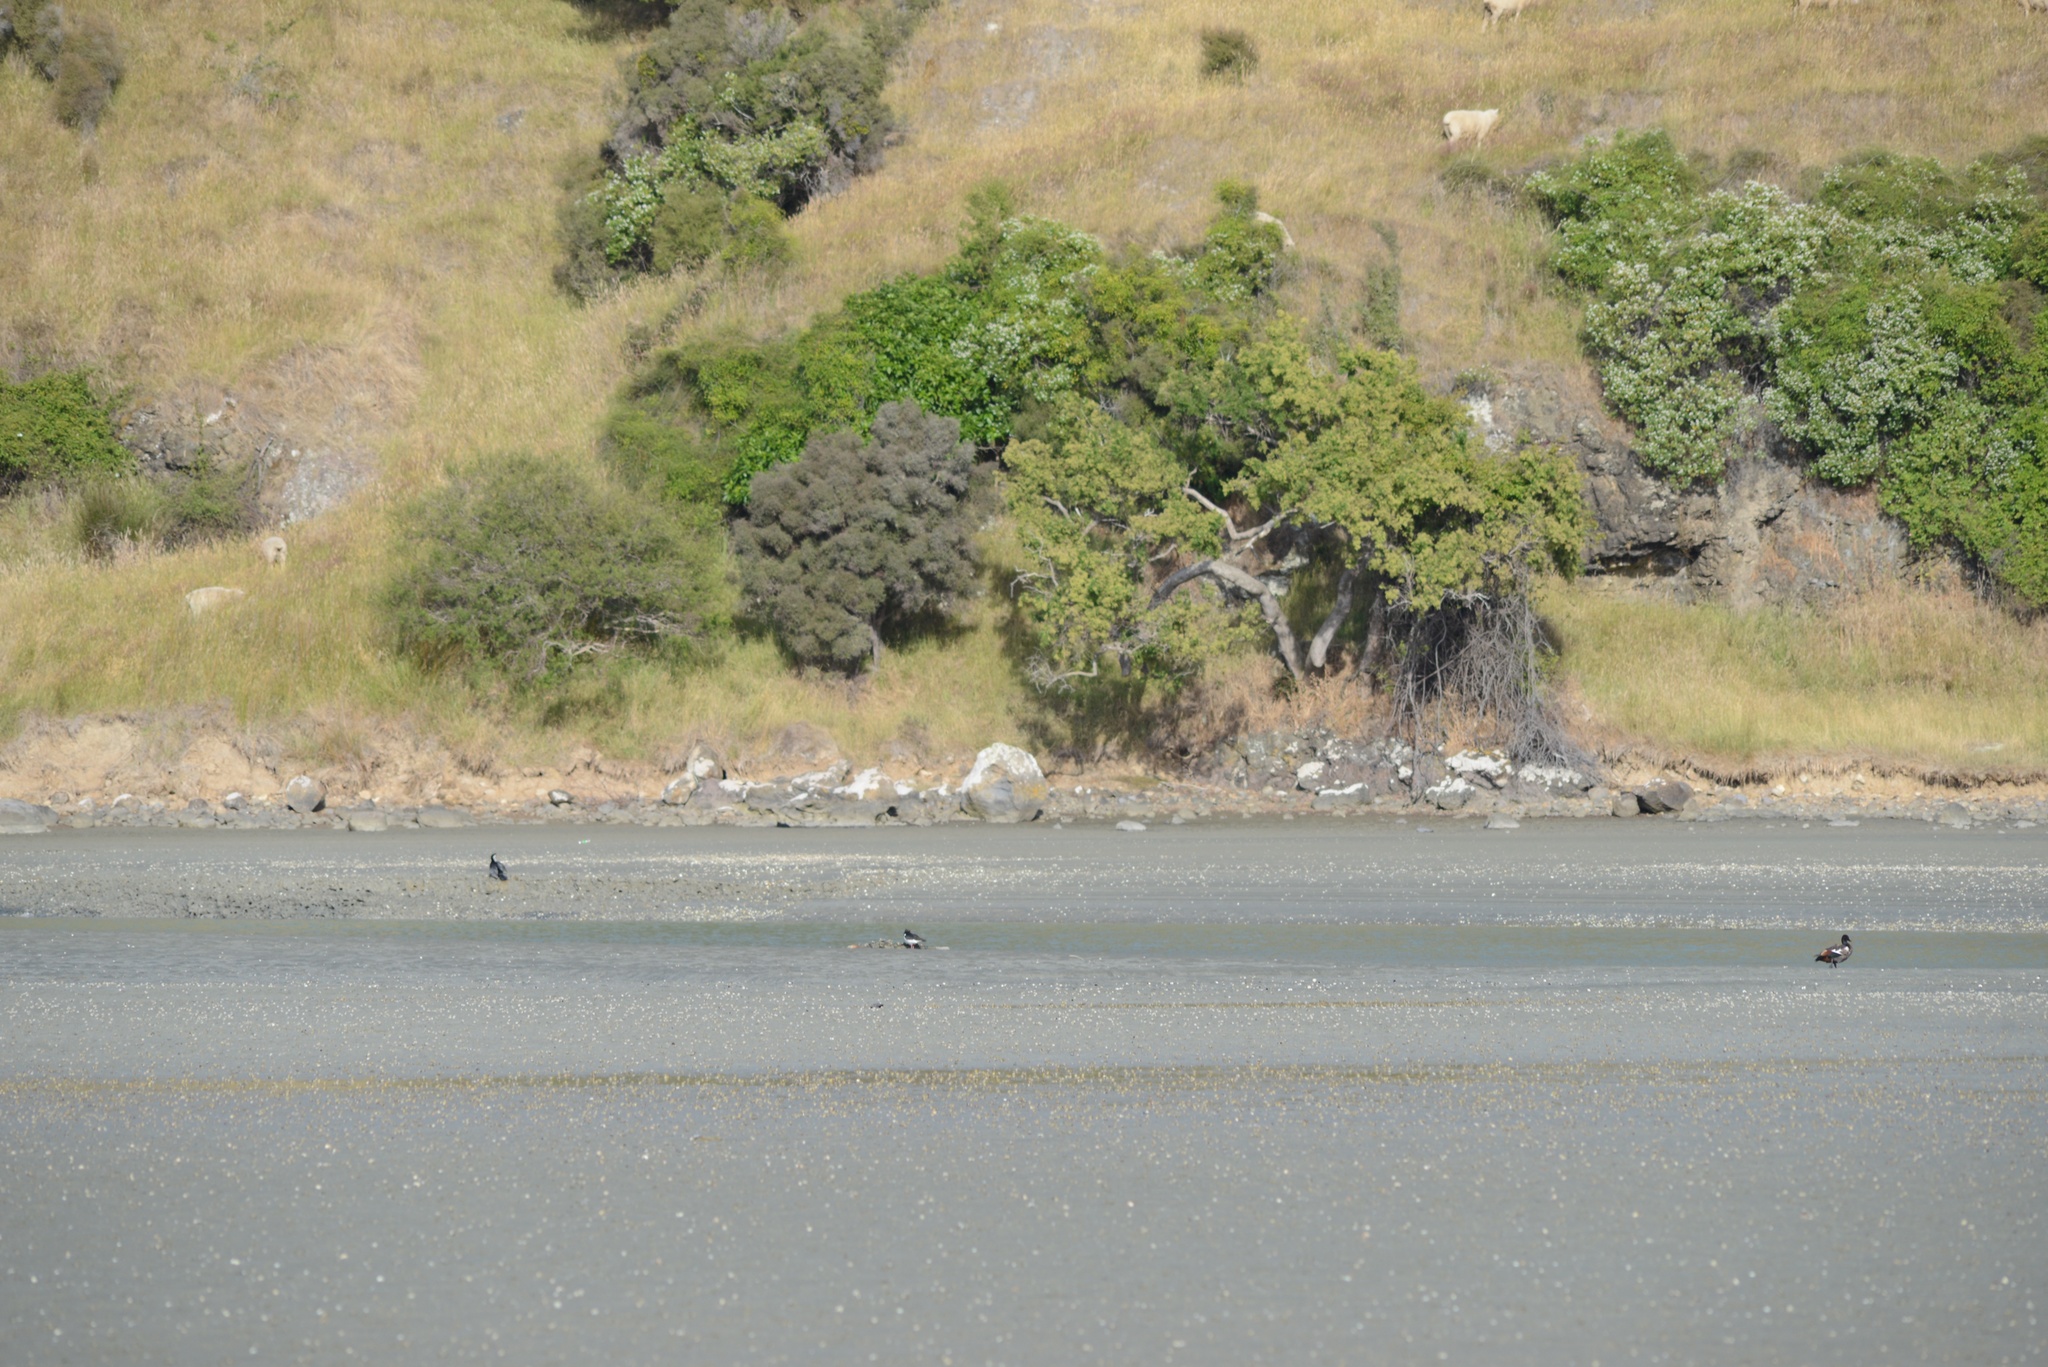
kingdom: Animalia
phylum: Chordata
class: Aves
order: Suliformes
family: Phalacrocoracidae
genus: Microcarbo
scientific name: Microcarbo melanoleucos
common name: Little pied cormorant
